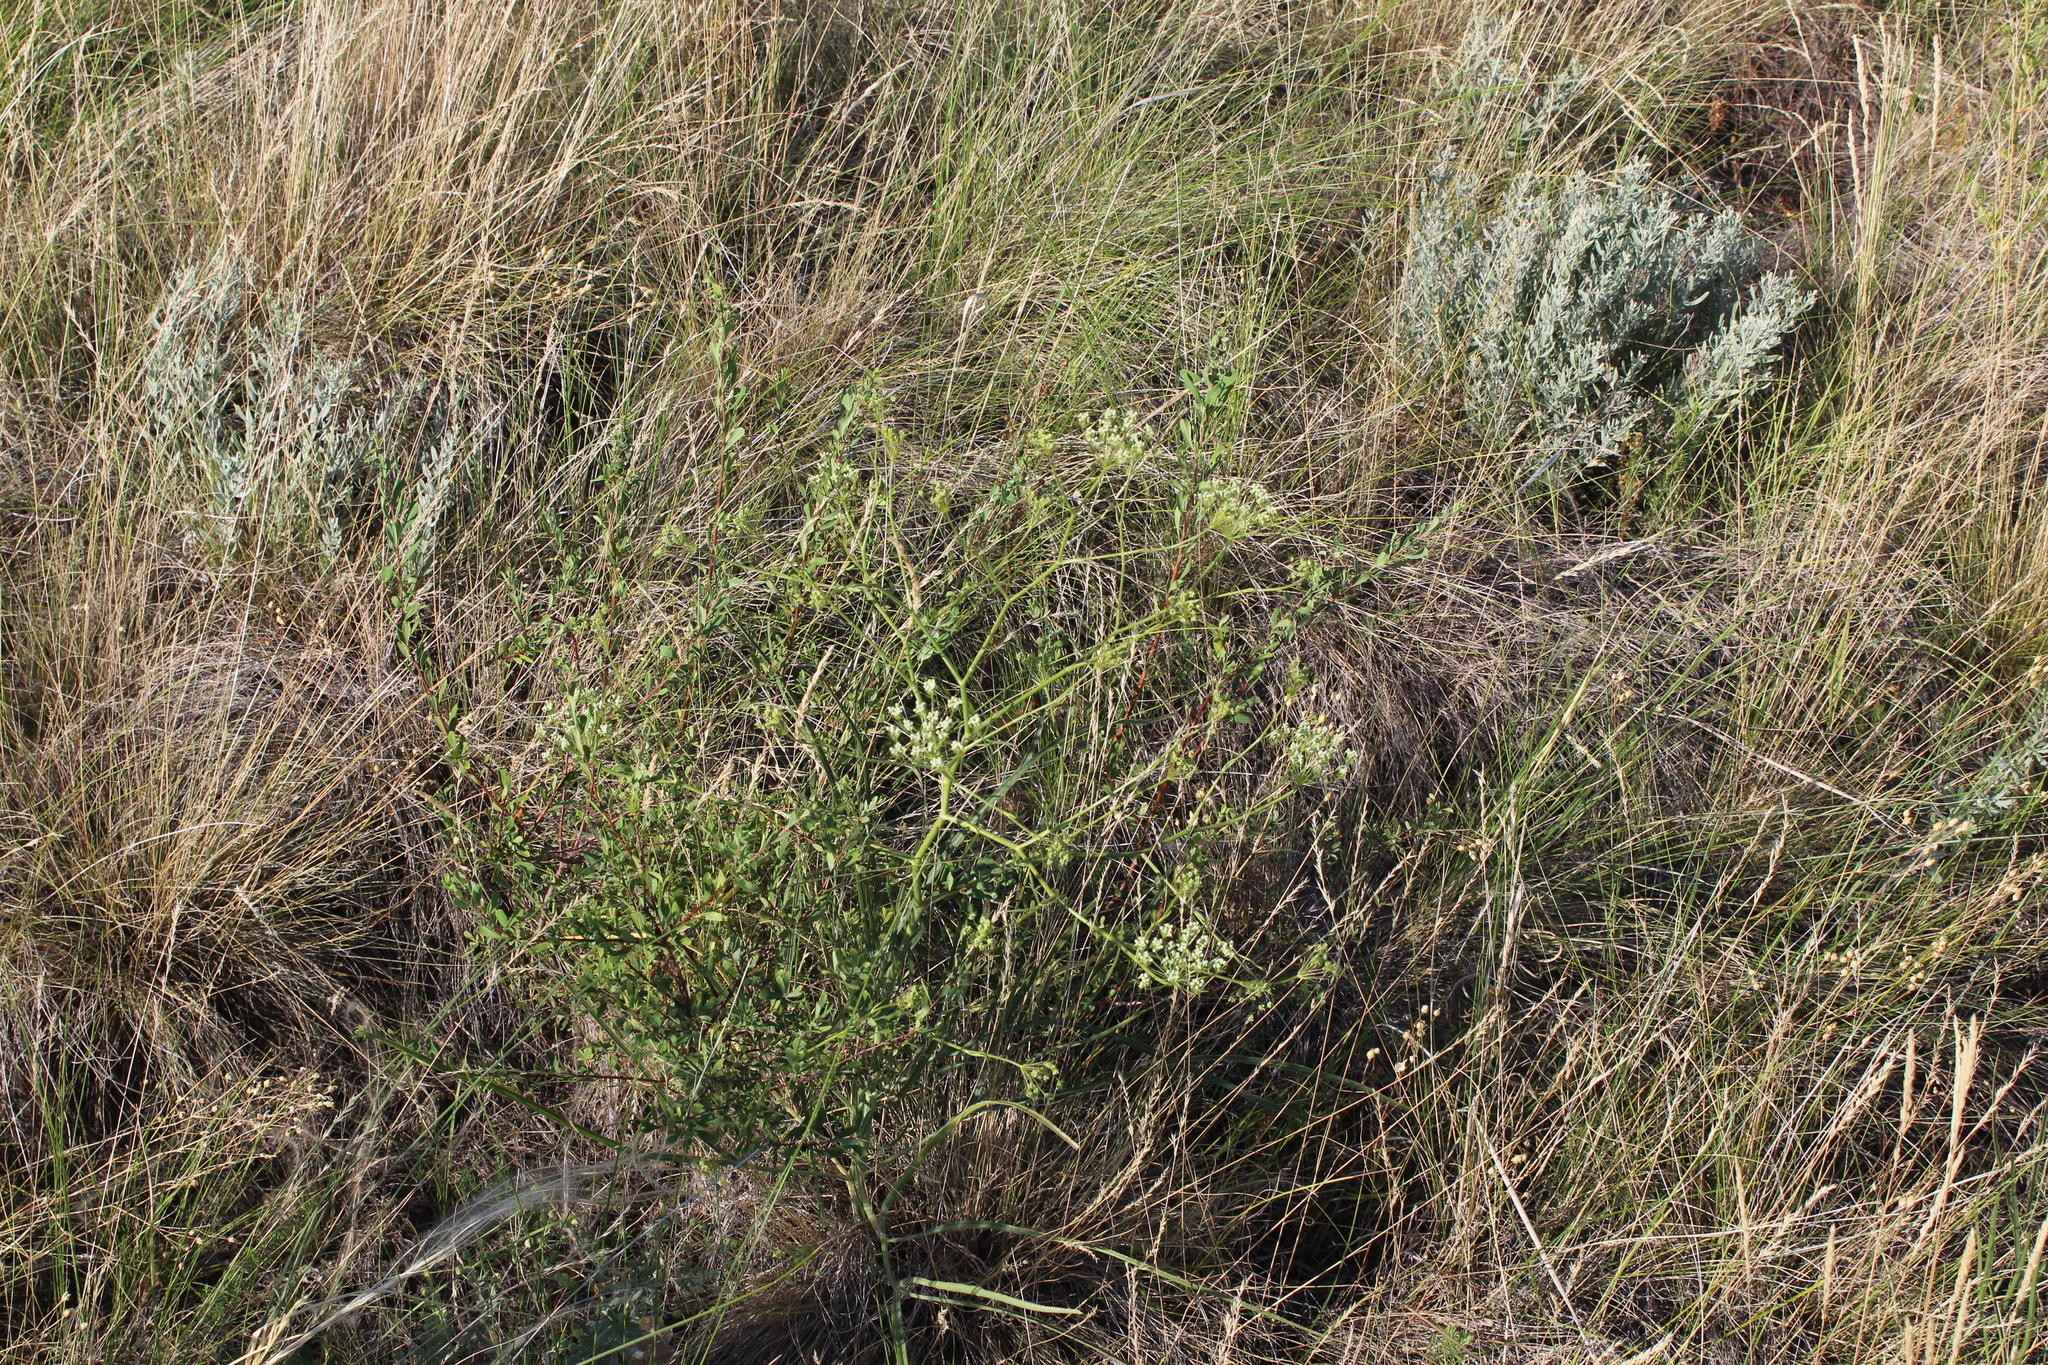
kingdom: Plantae
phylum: Tracheophyta
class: Magnoliopsida
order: Apiales
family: Apiaceae
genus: Falcaria
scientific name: Falcaria vulgaris
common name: Longleaf
